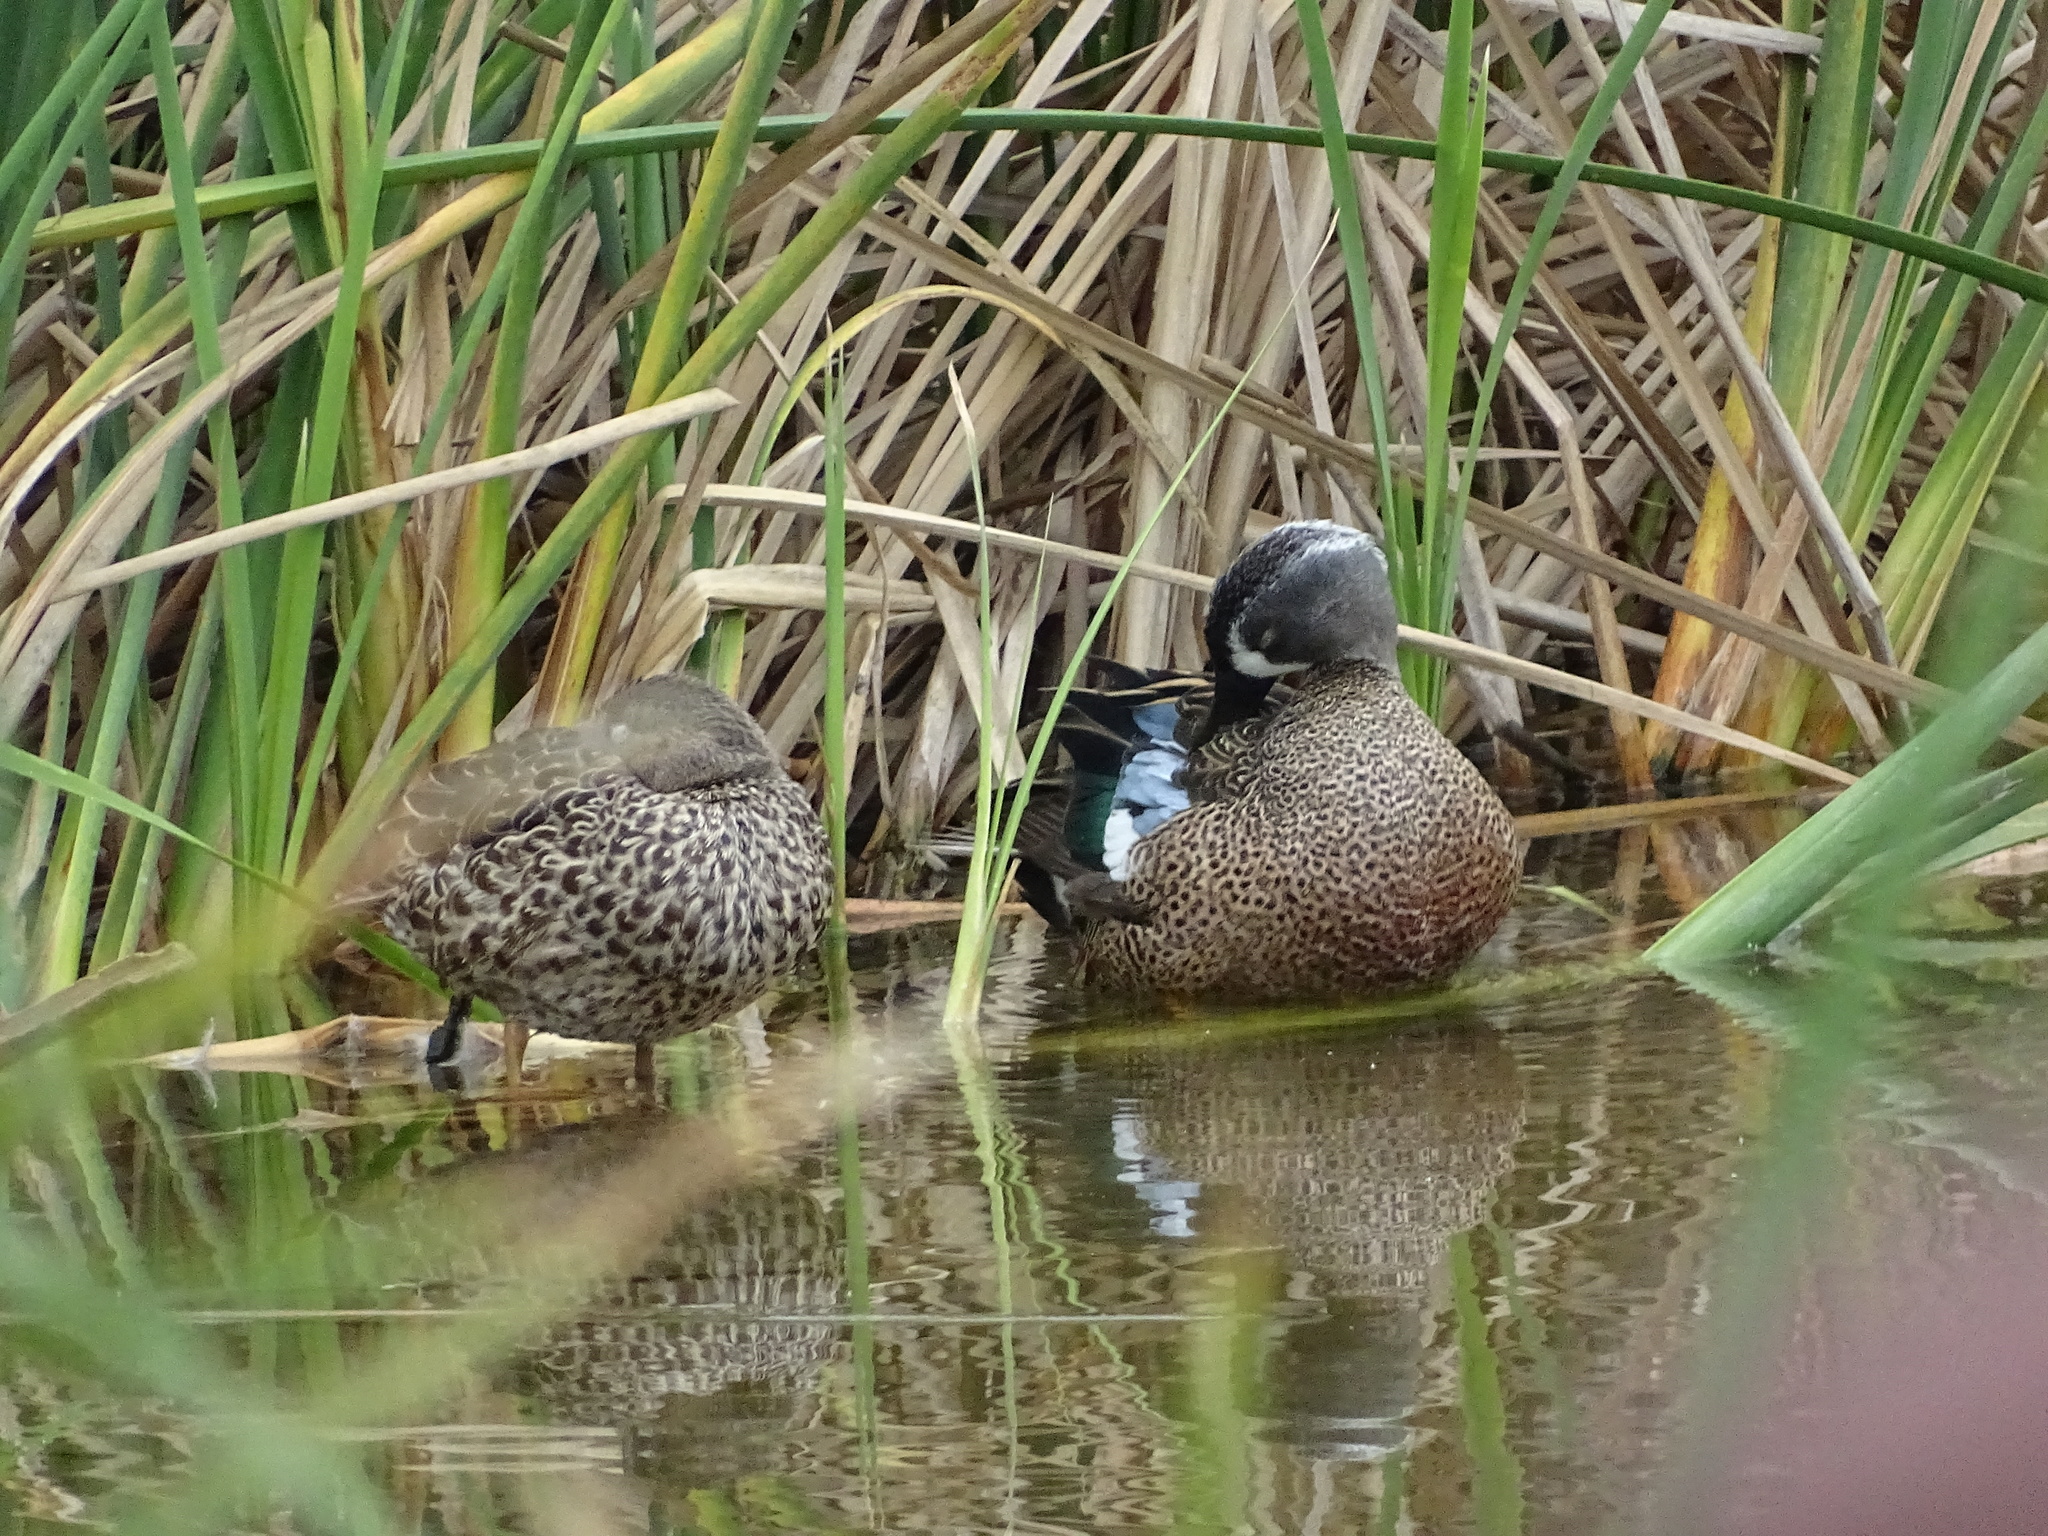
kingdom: Animalia
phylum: Chordata
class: Aves
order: Anseriformes
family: Anatidae
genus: Spatula
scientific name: Spatula discors
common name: Blue-winged teal
